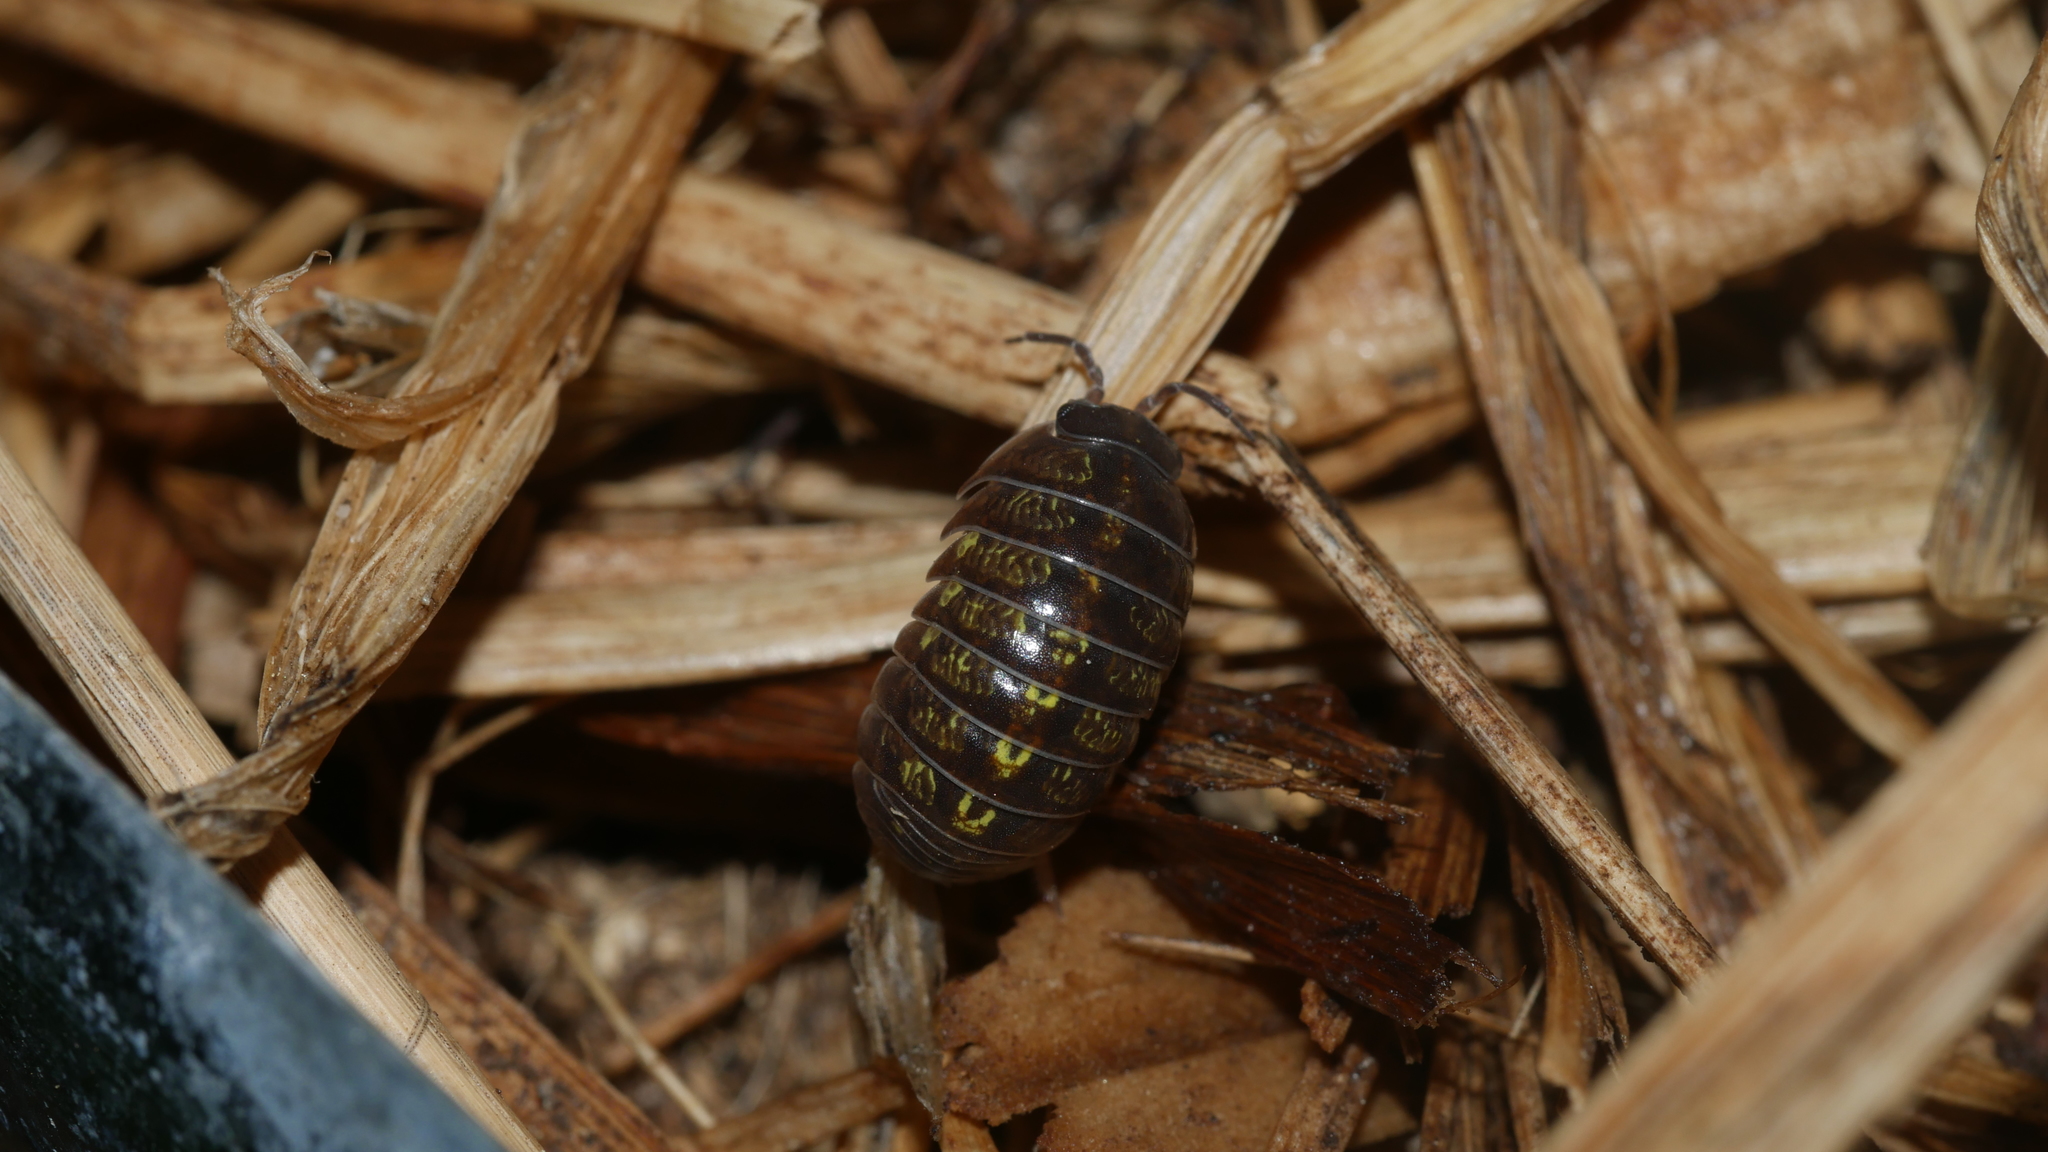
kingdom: Animalia
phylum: Arthropoda
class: Malacostraca
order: Isopoda
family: Armadillidiidae
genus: Armadillidium
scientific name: Armadillidium vulgare
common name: Common pill woodlouse
